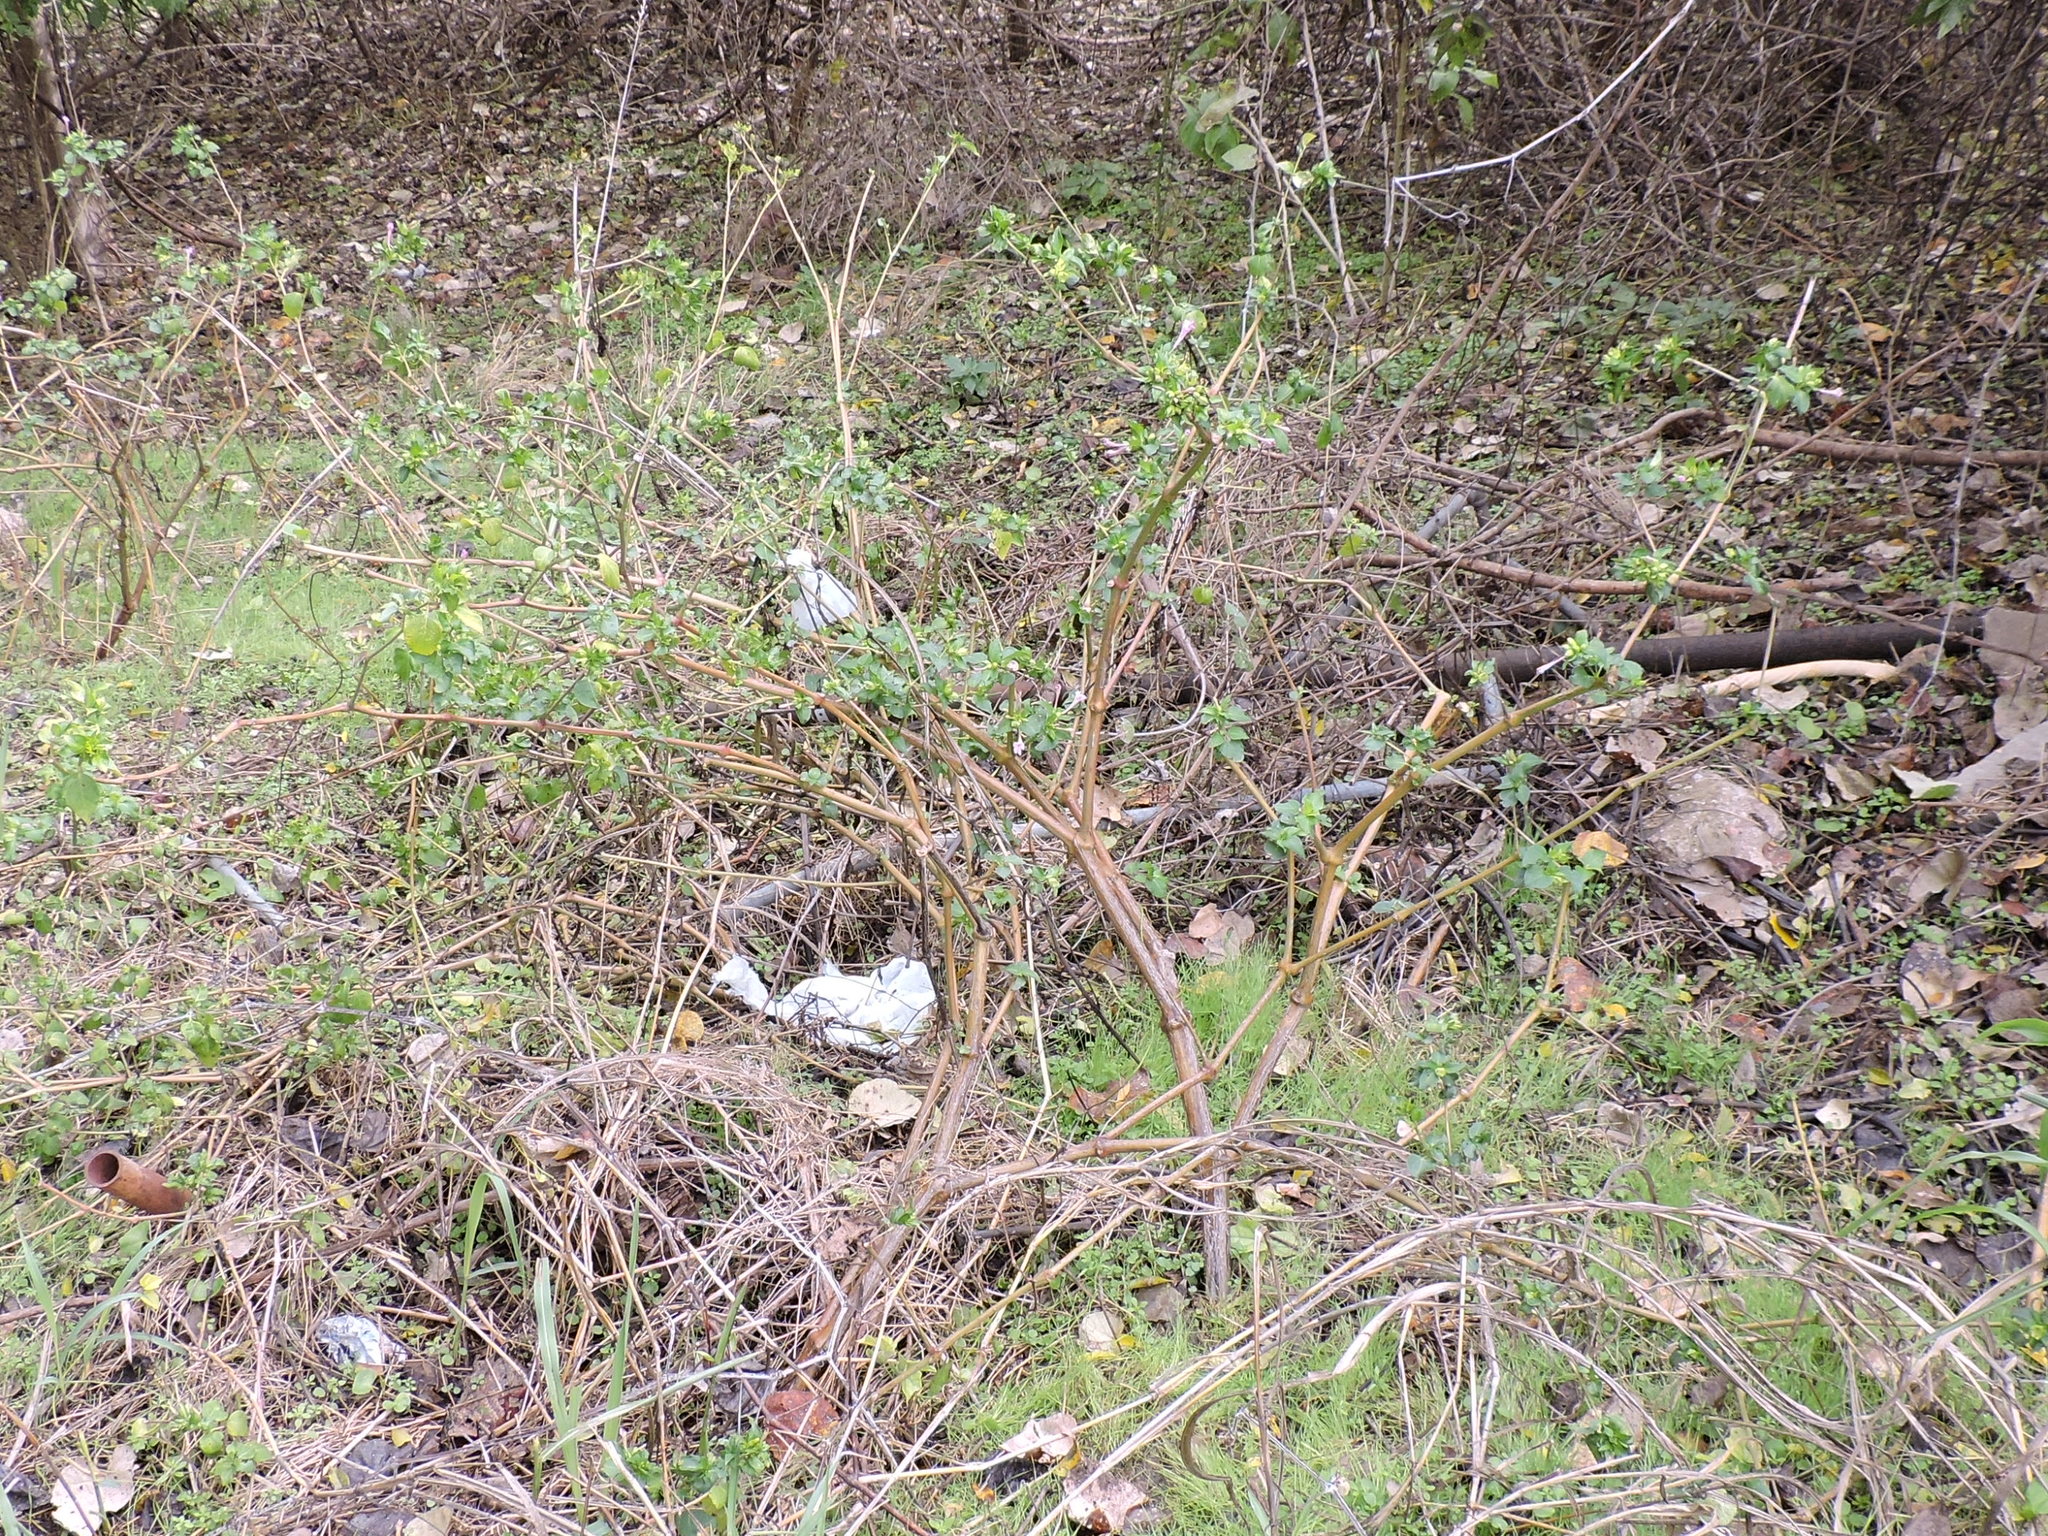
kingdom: Plantae
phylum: Tracheophyta
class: Magnoliopsida
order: Caryophyllales
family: Nyctaginaceae
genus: Mirabilis
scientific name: Mirabilis jalapa
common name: Marvel-of-peru
